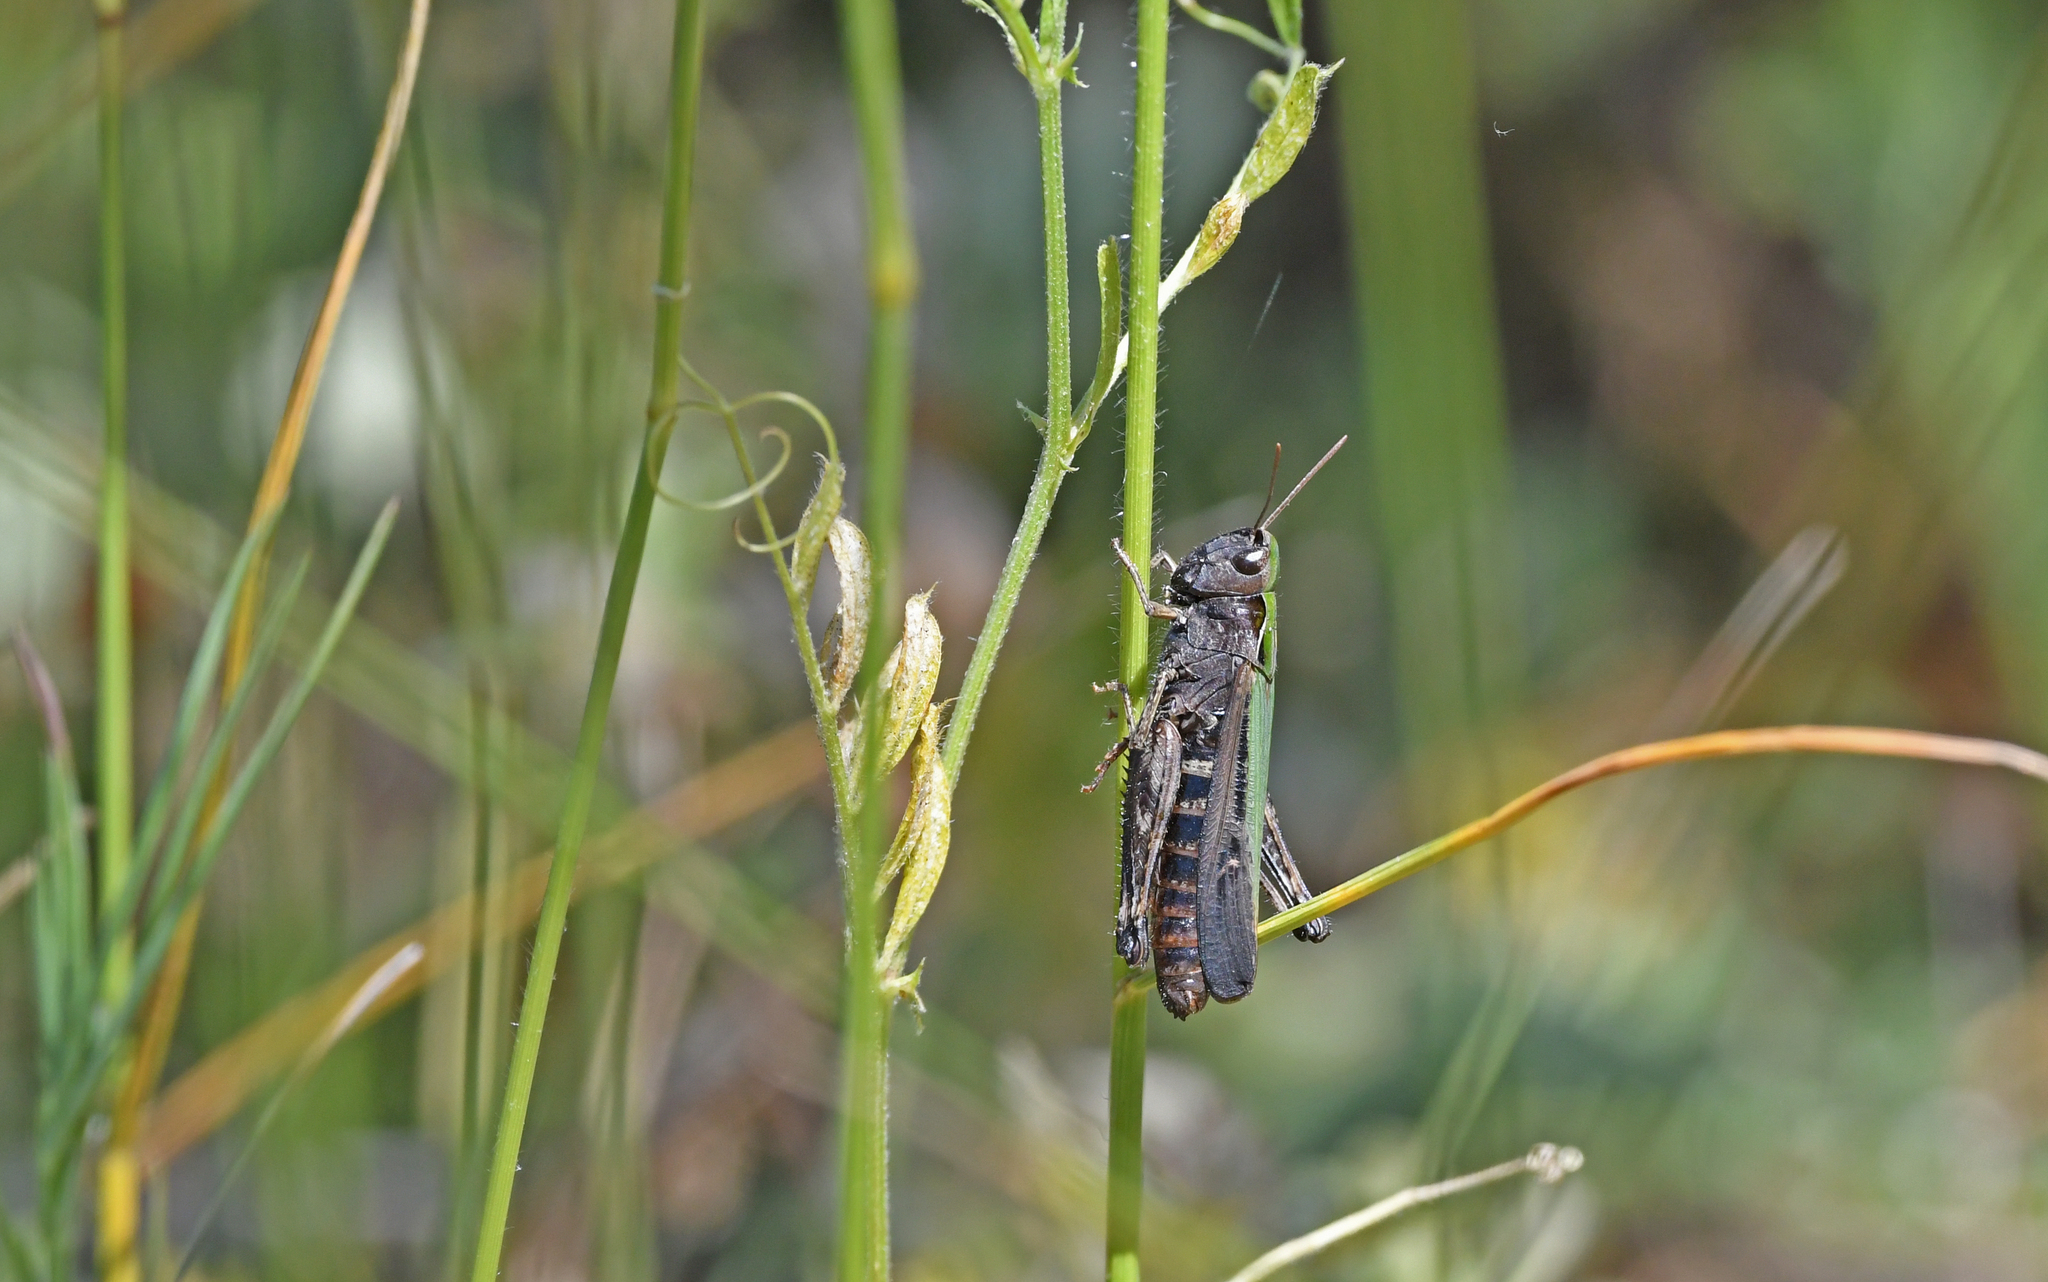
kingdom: Animalia
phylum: Arthropoda
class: Insecta
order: Orthoptera
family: Acrididae
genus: Omocestus
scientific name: Omocestus rufipes
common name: Woodland grasshopper
